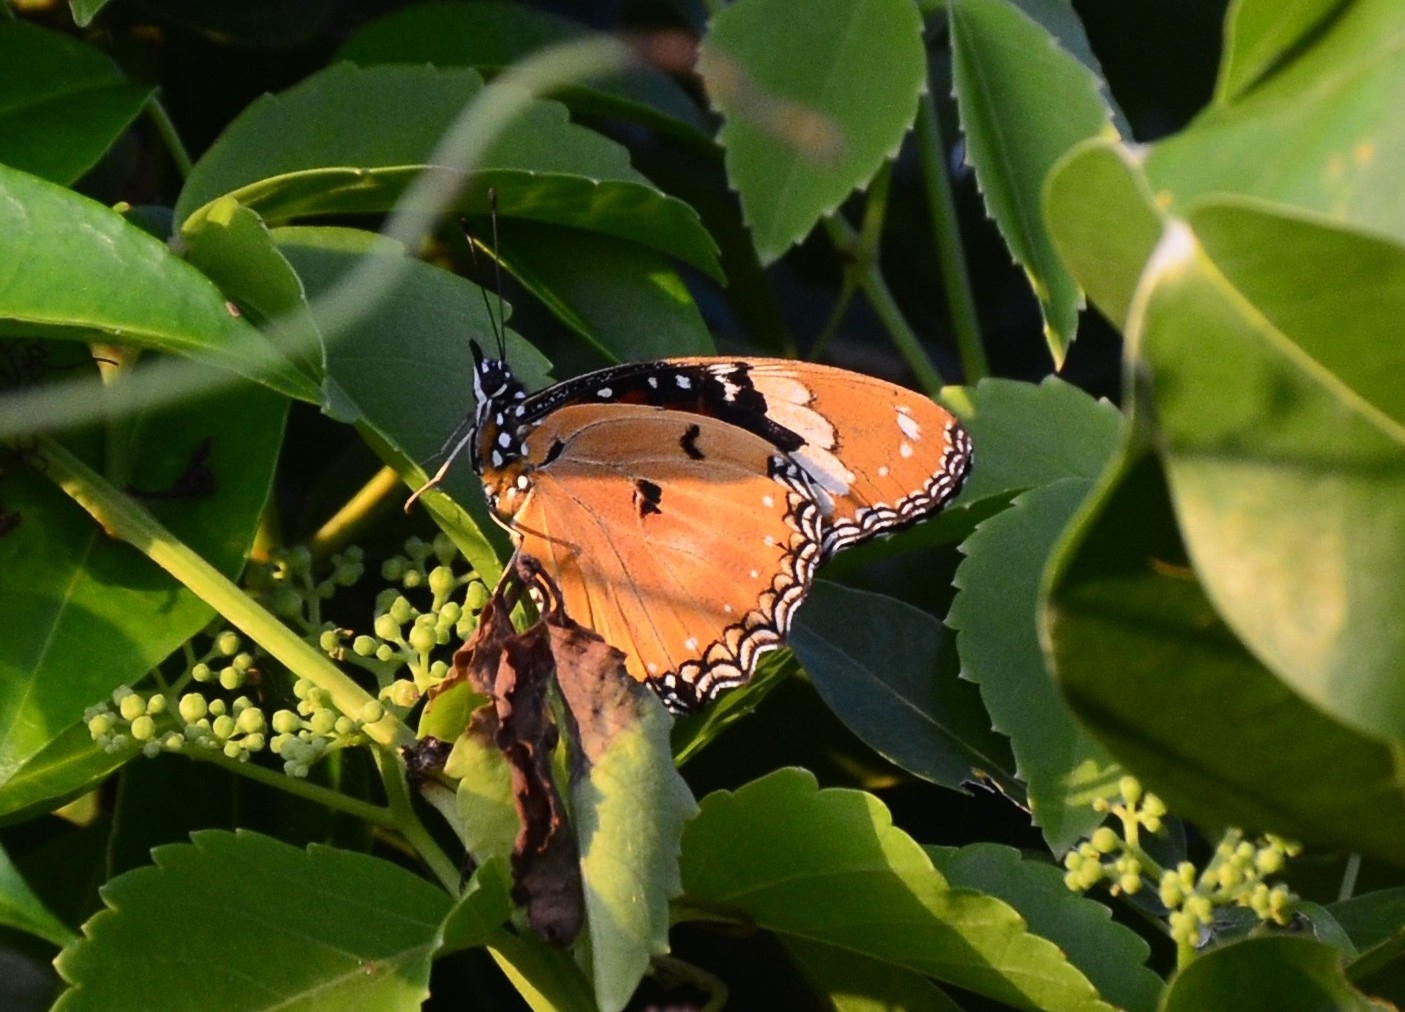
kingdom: Animalia
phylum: Arthropoda
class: Insecta
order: Lepidoptera
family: Nymphalidae
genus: Hypolimnas
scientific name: Hypolimnas misippus
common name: False plain tiger
